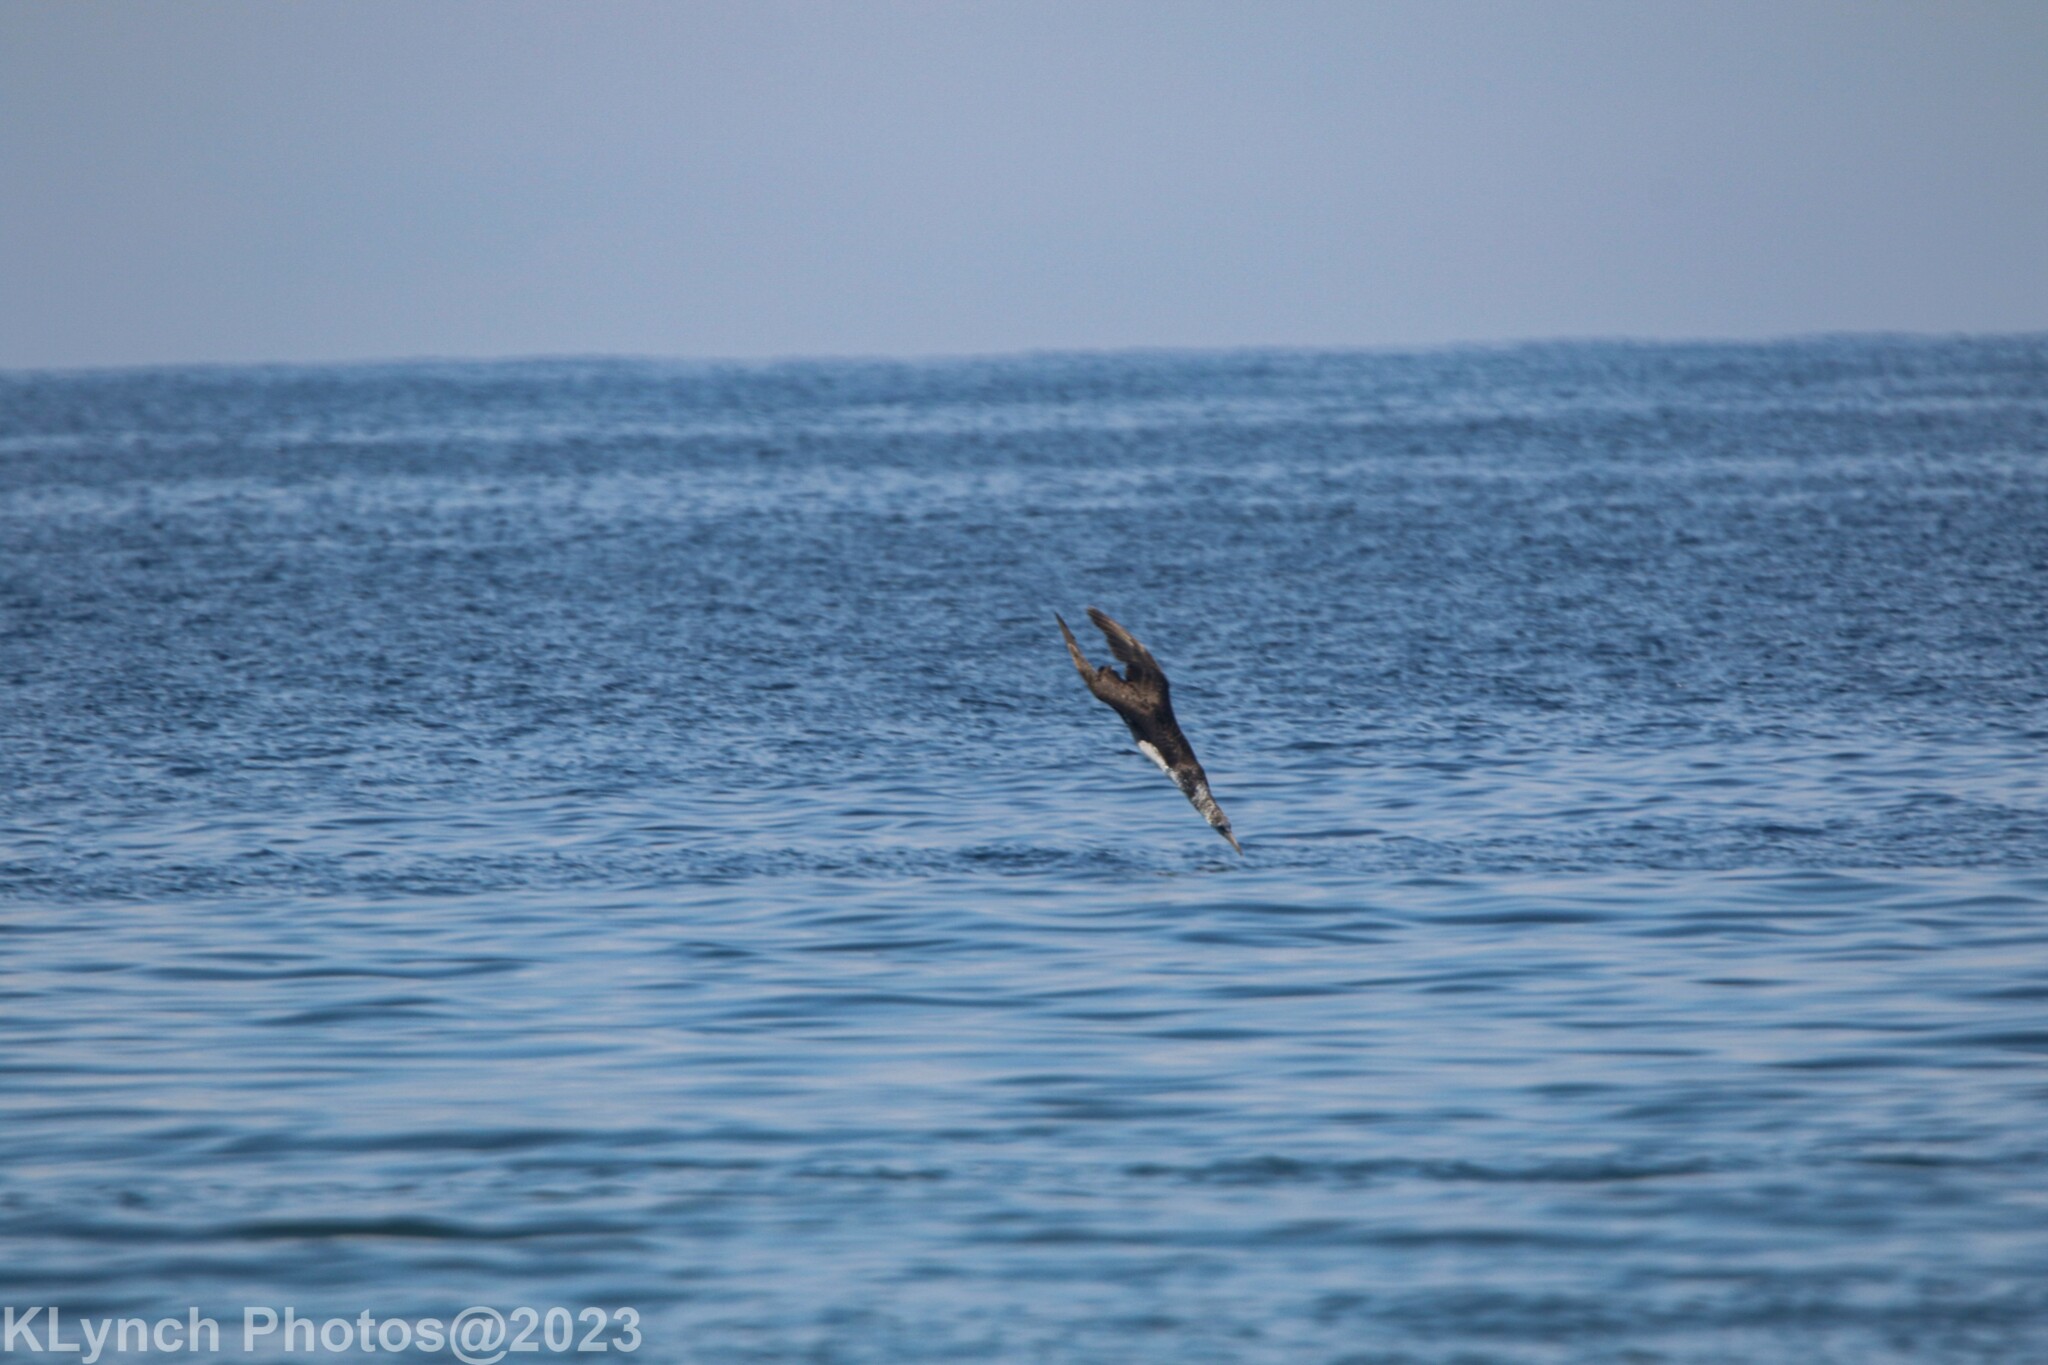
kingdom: Animalia
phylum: Chordata
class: Aves
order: Suliformes
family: Sulidae
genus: Morus
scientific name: Morus bassanus
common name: Northern gannet
